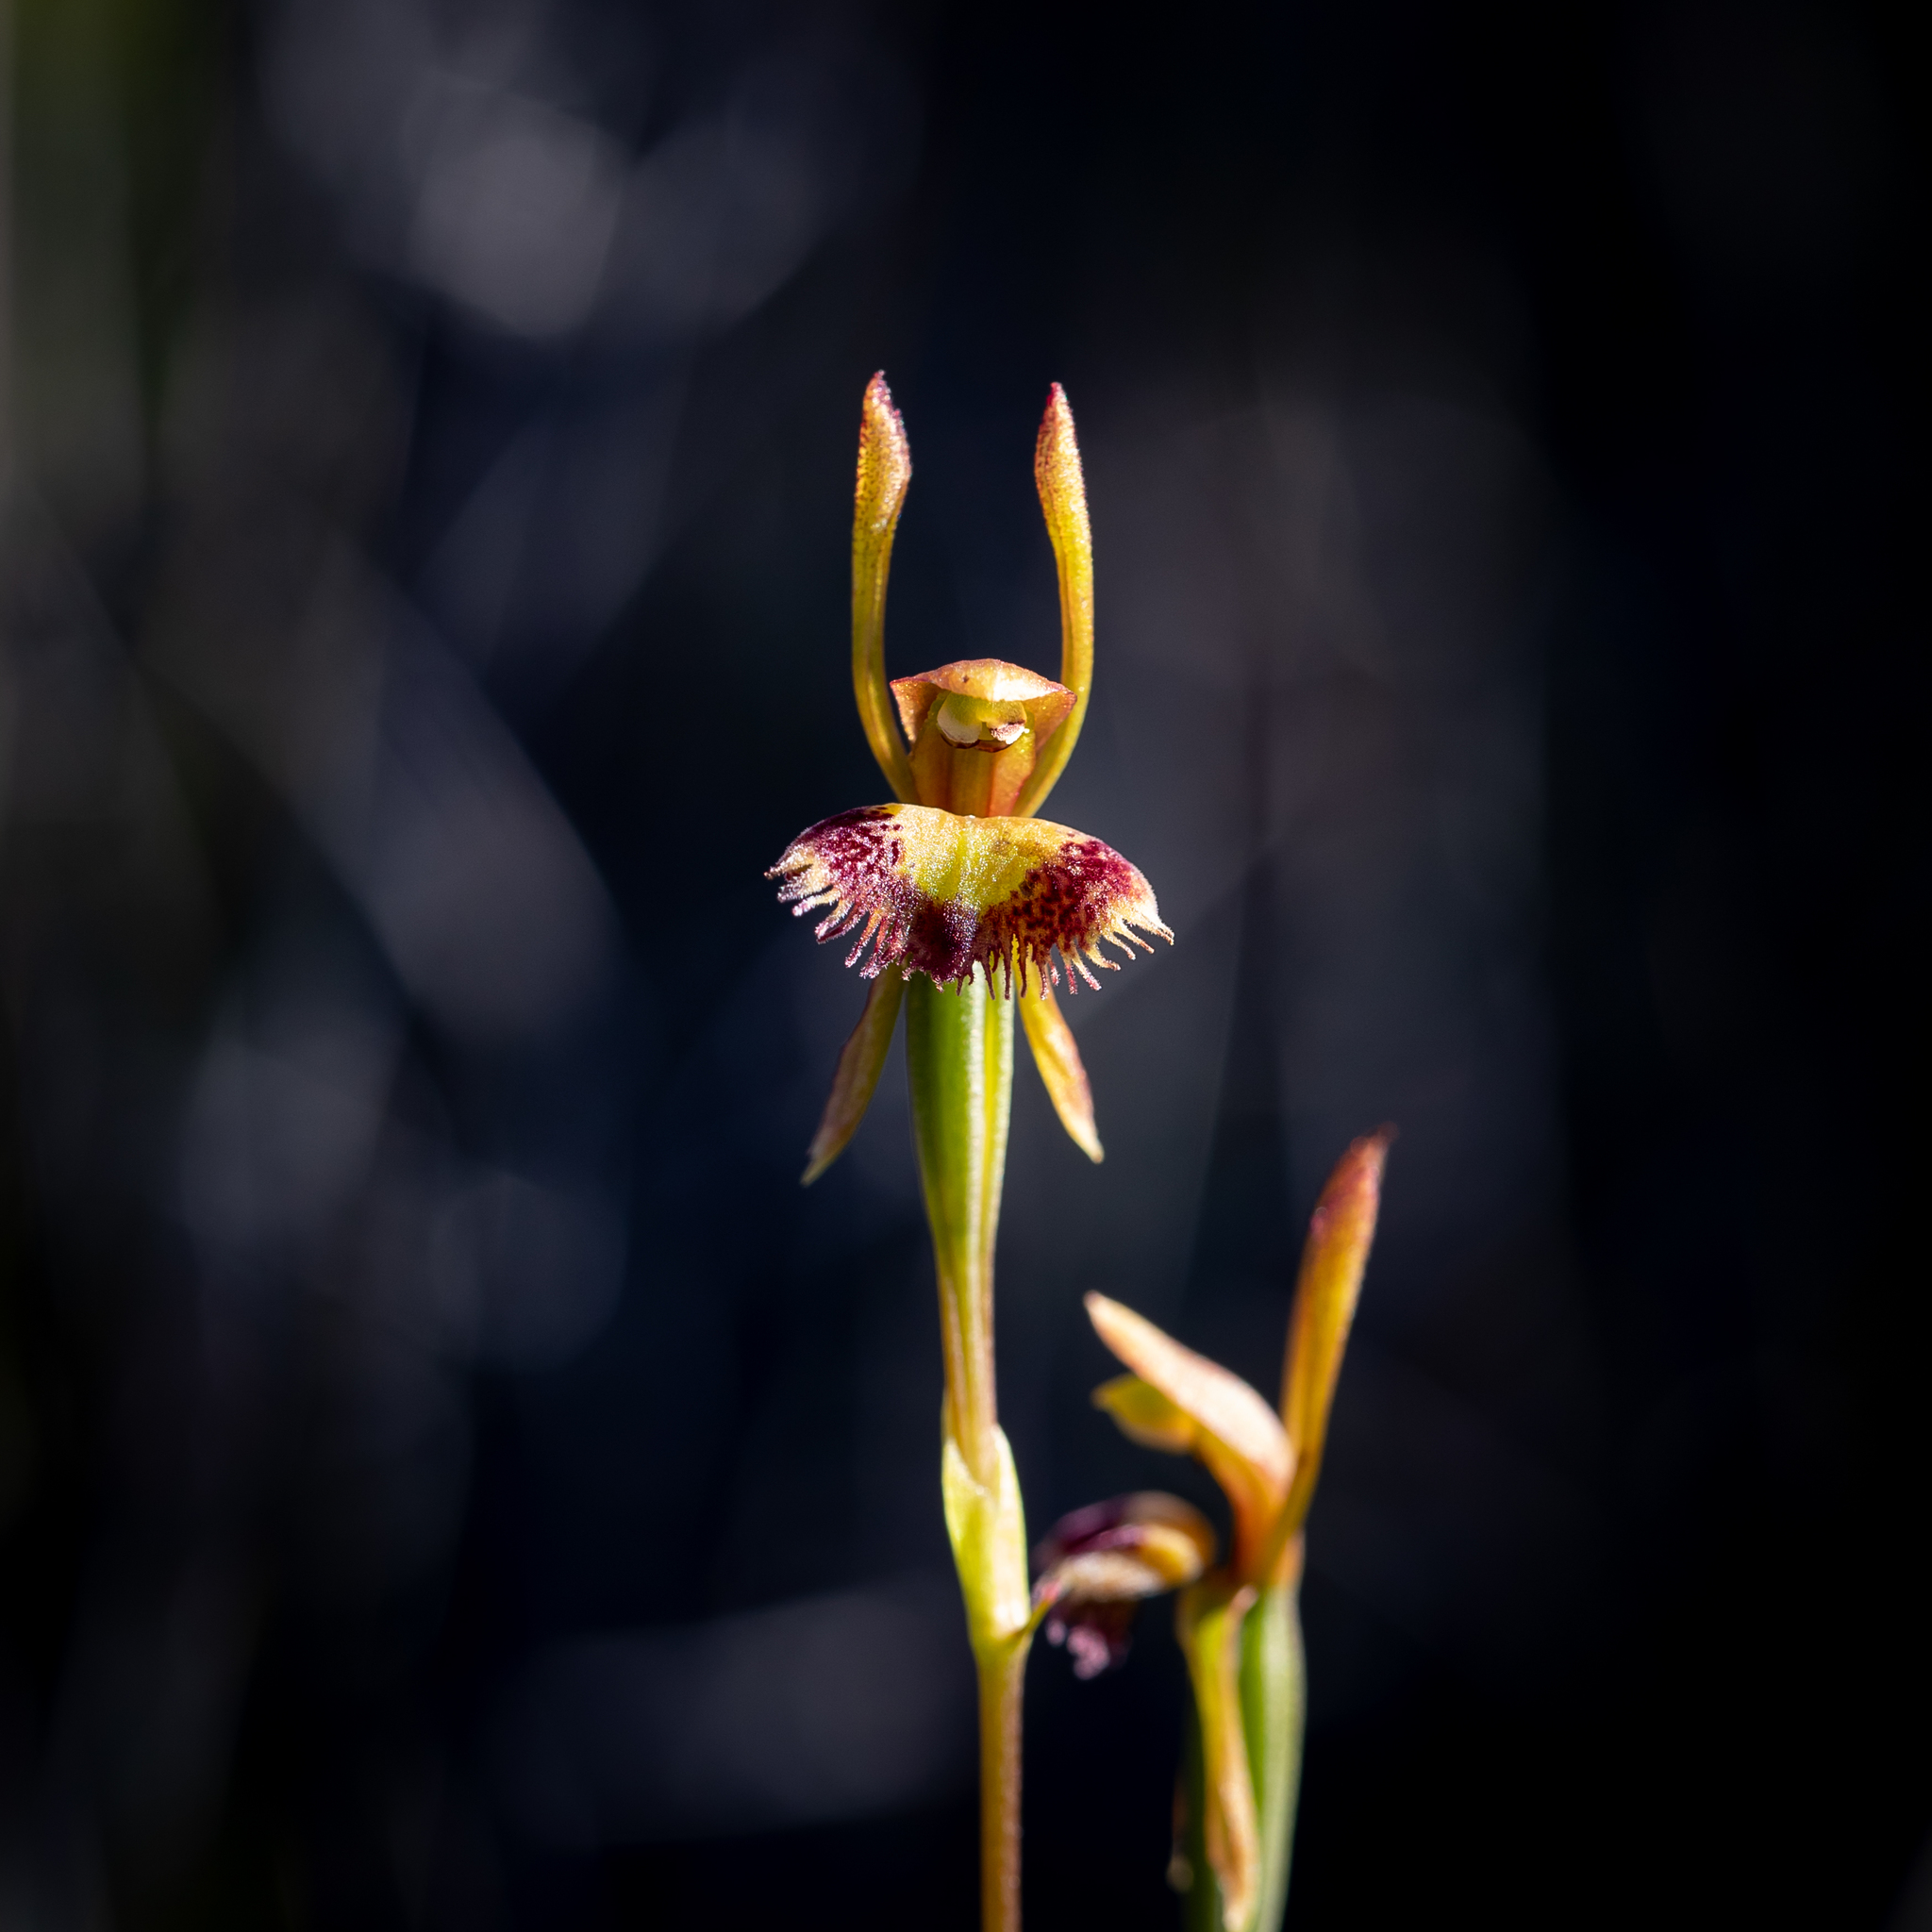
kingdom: Plantae
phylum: Tracheophyta
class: Liliopsida
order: Asparagales
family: Orchidaceae
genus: Leporella
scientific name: Leporella fimbriata
